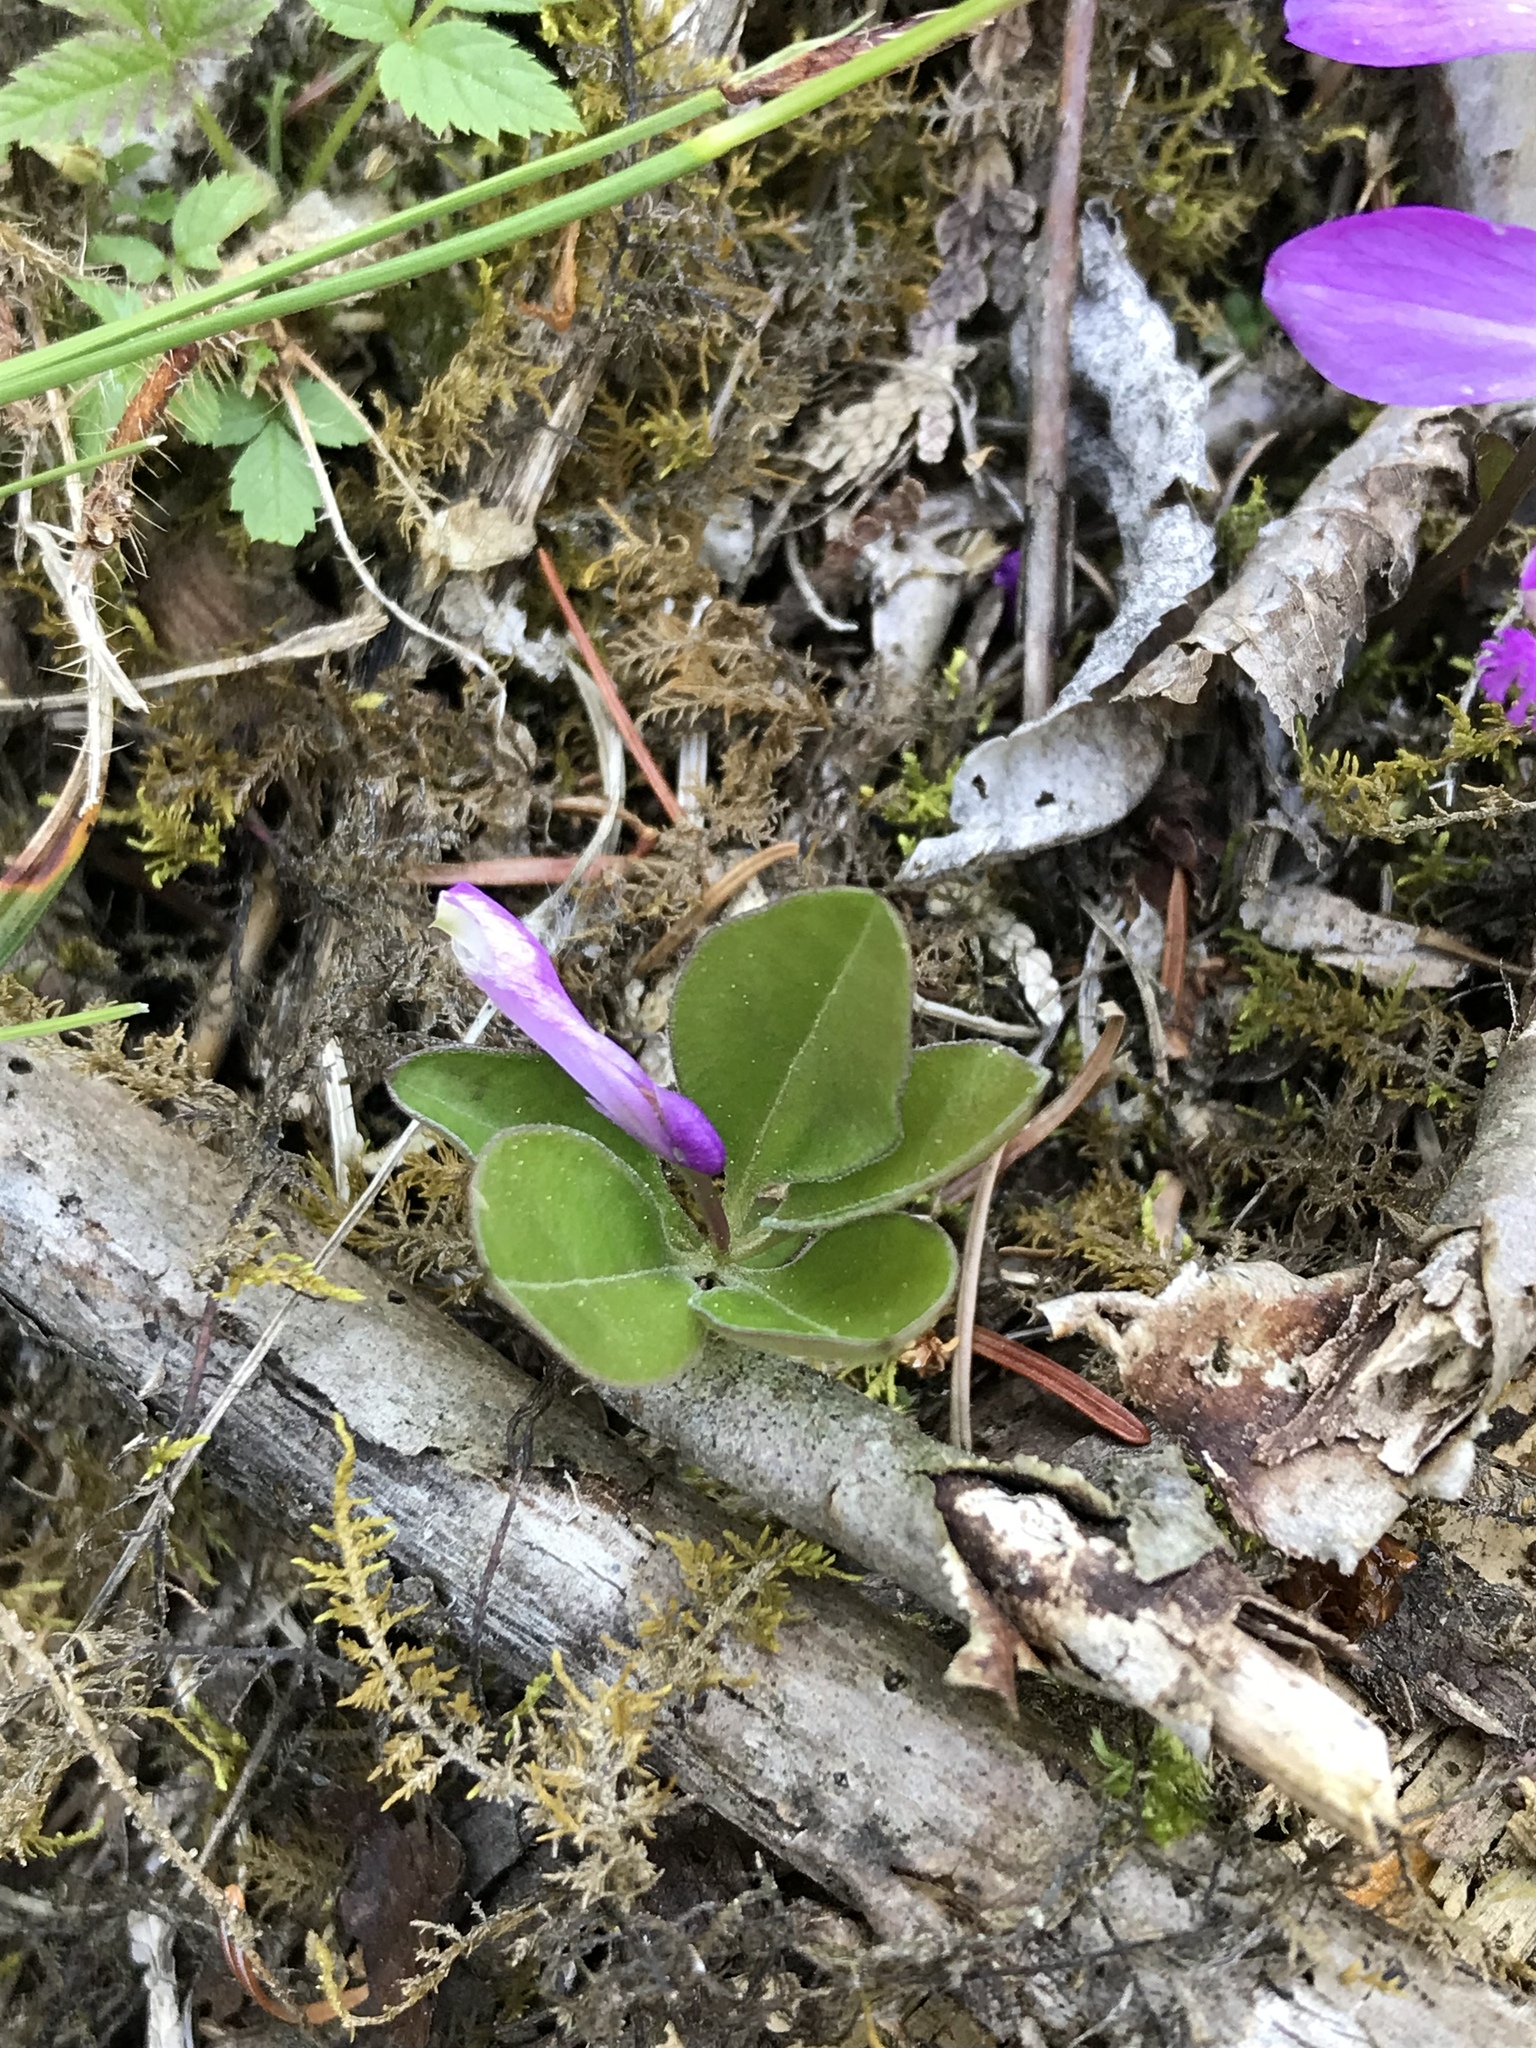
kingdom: Plantae
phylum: Tracheophyta
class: Magnoliopsida
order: Fabales
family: Polygalaceae
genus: Polygaloides
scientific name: Polygaloides paucifolia
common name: Bird-on-the-wing
